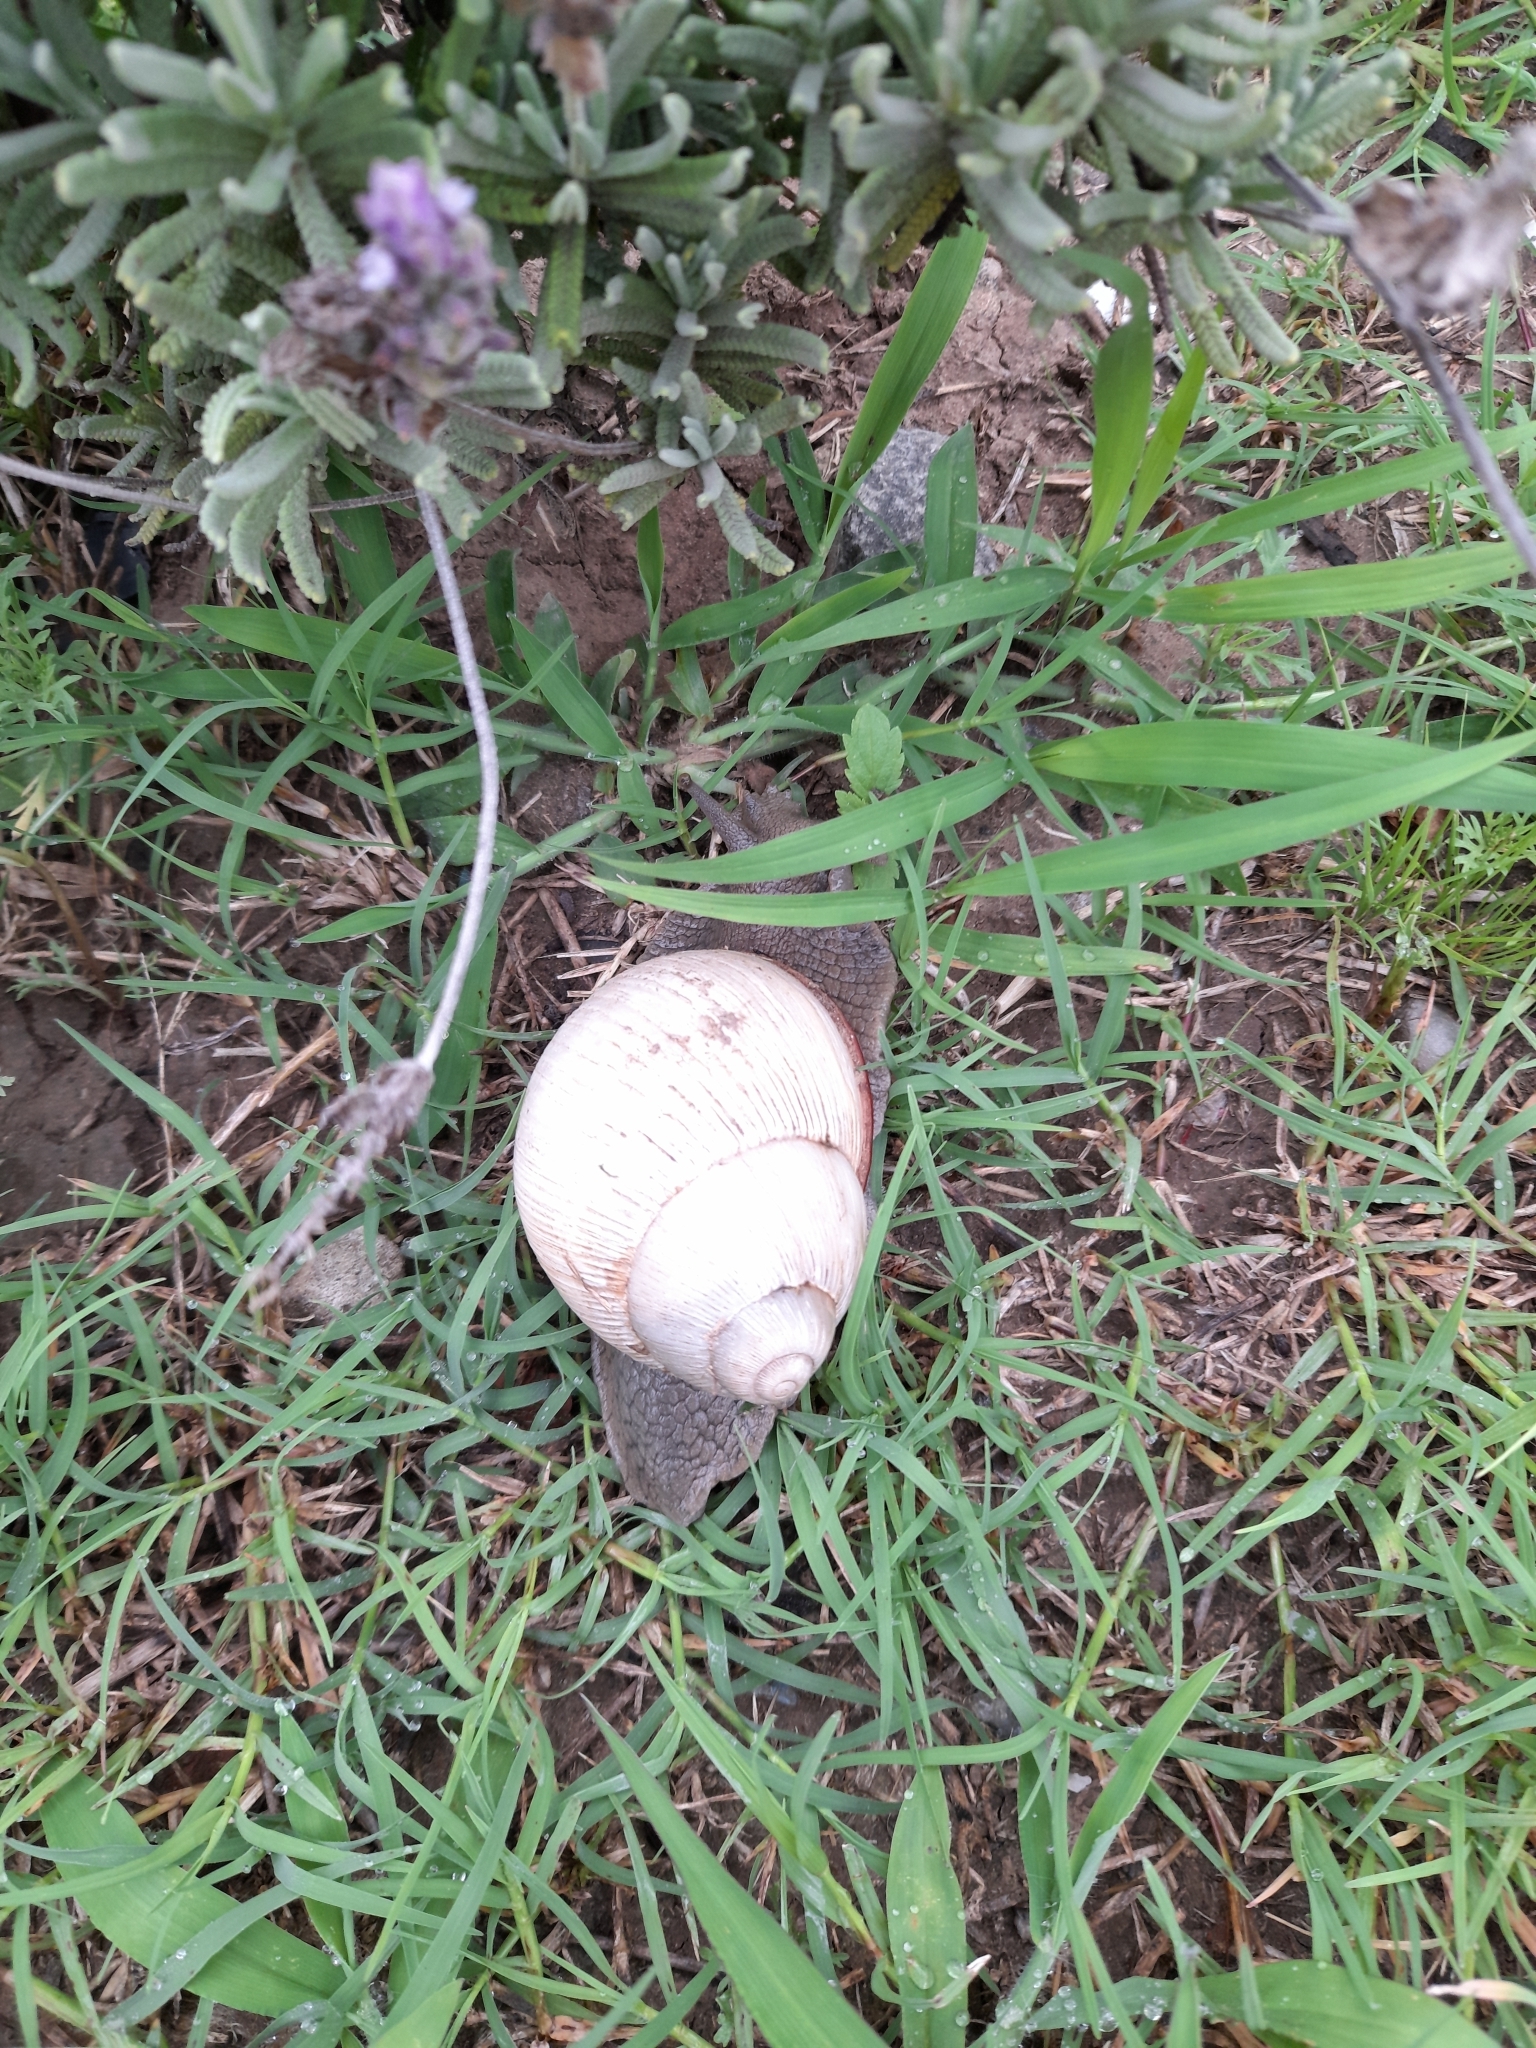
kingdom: Animalia
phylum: Mollusca
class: Gastropoda
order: Stylommatophora
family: Strophocheilidae
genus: Megalobulimus
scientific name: Megalobulimus
